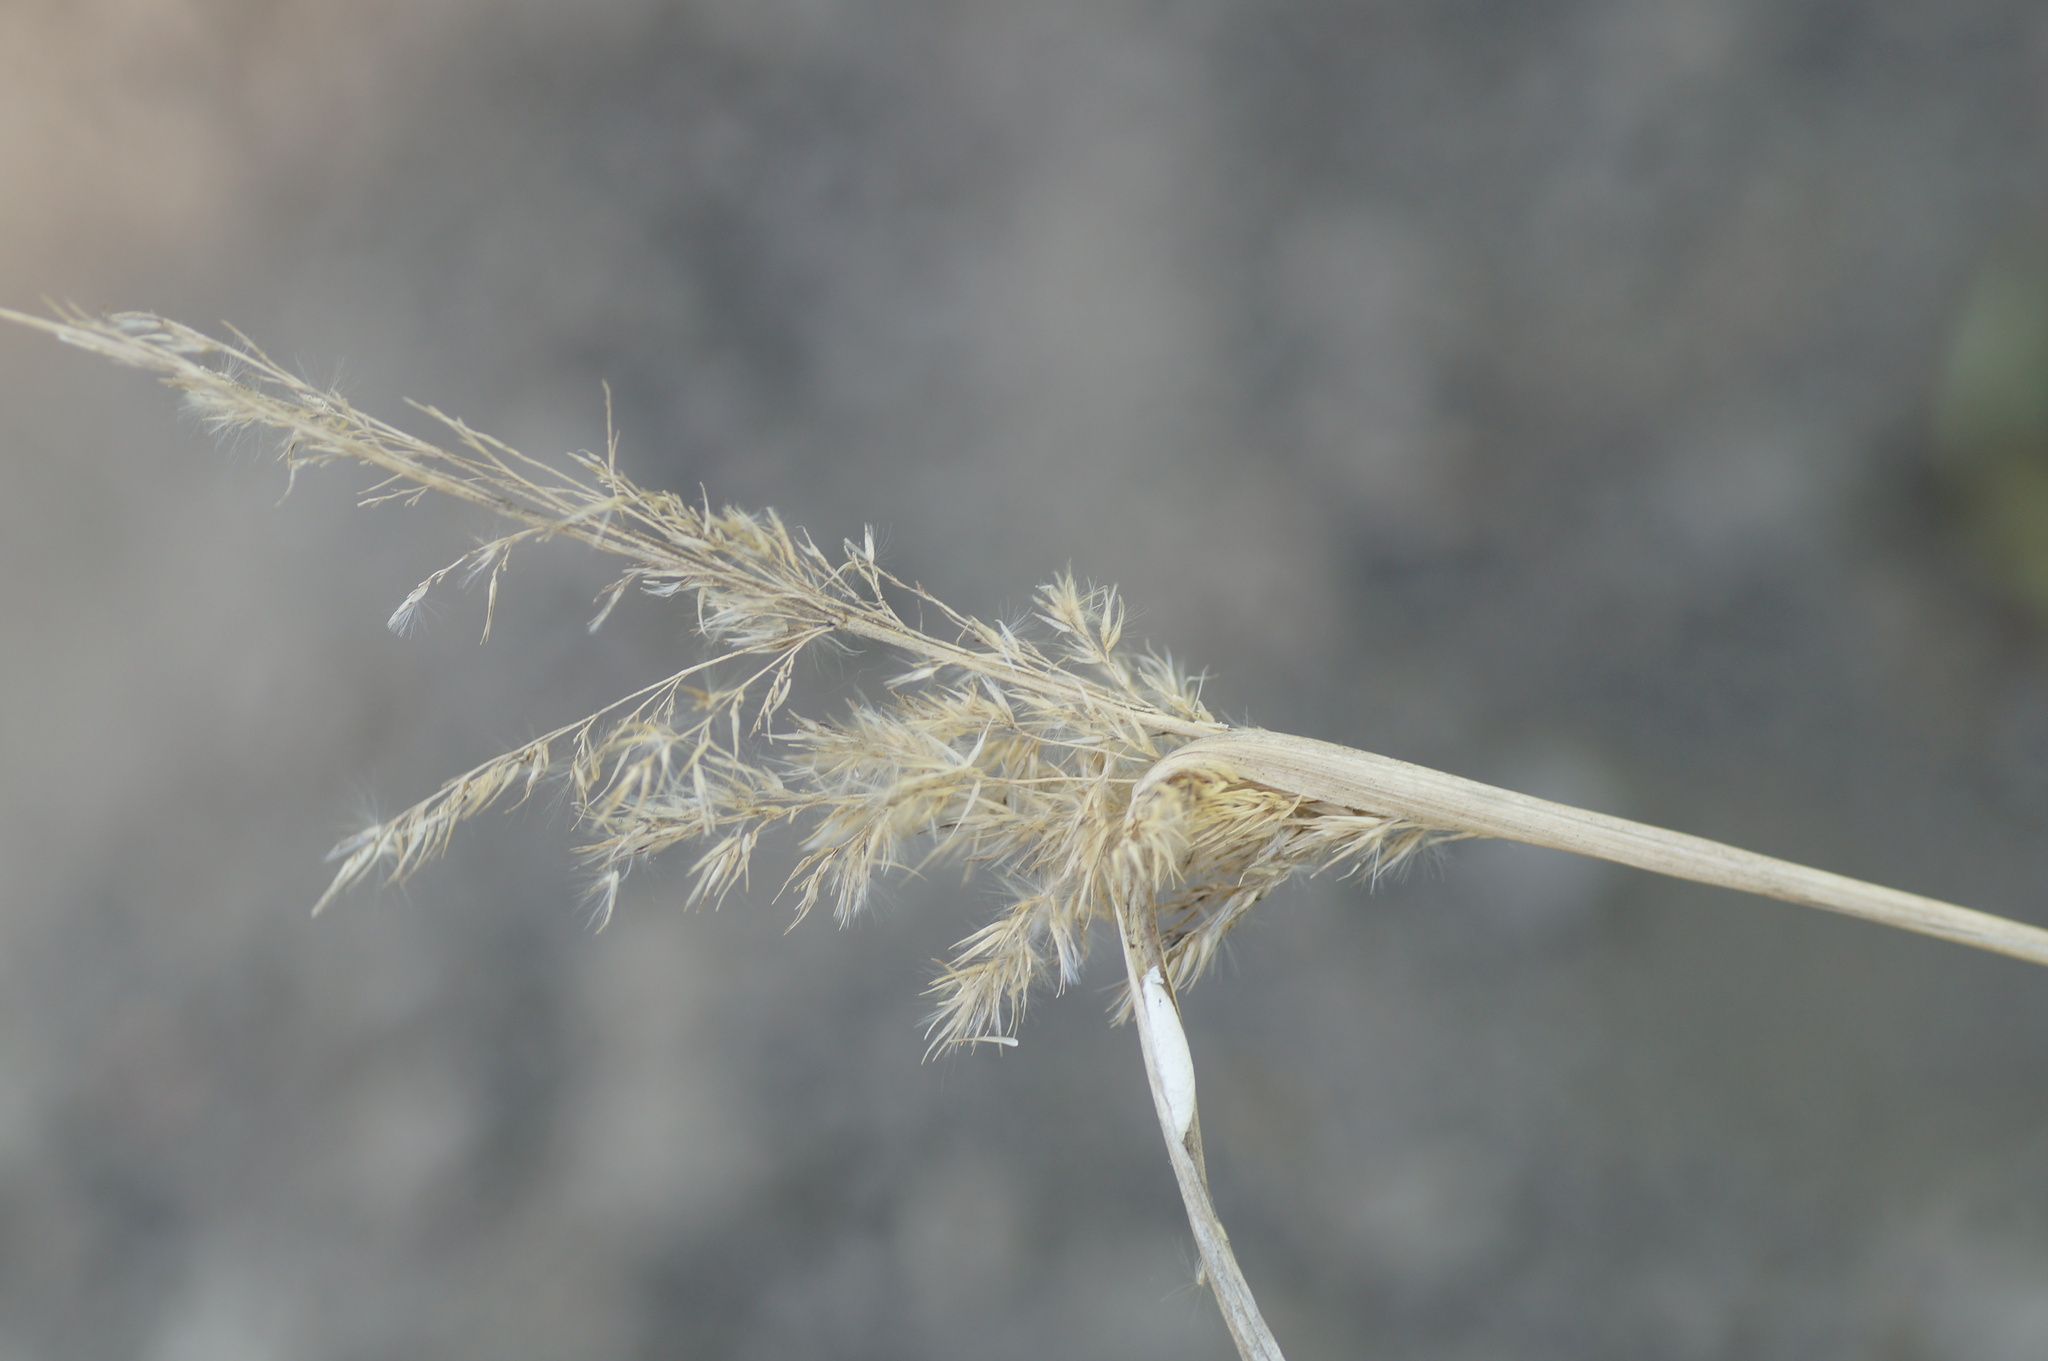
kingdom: Plantae
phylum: Tracheophyta
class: Liliopsida
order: Poales
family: Poaceae
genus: Calamagrostis
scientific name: Calamagrostis epigejos
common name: Wood small-reed
